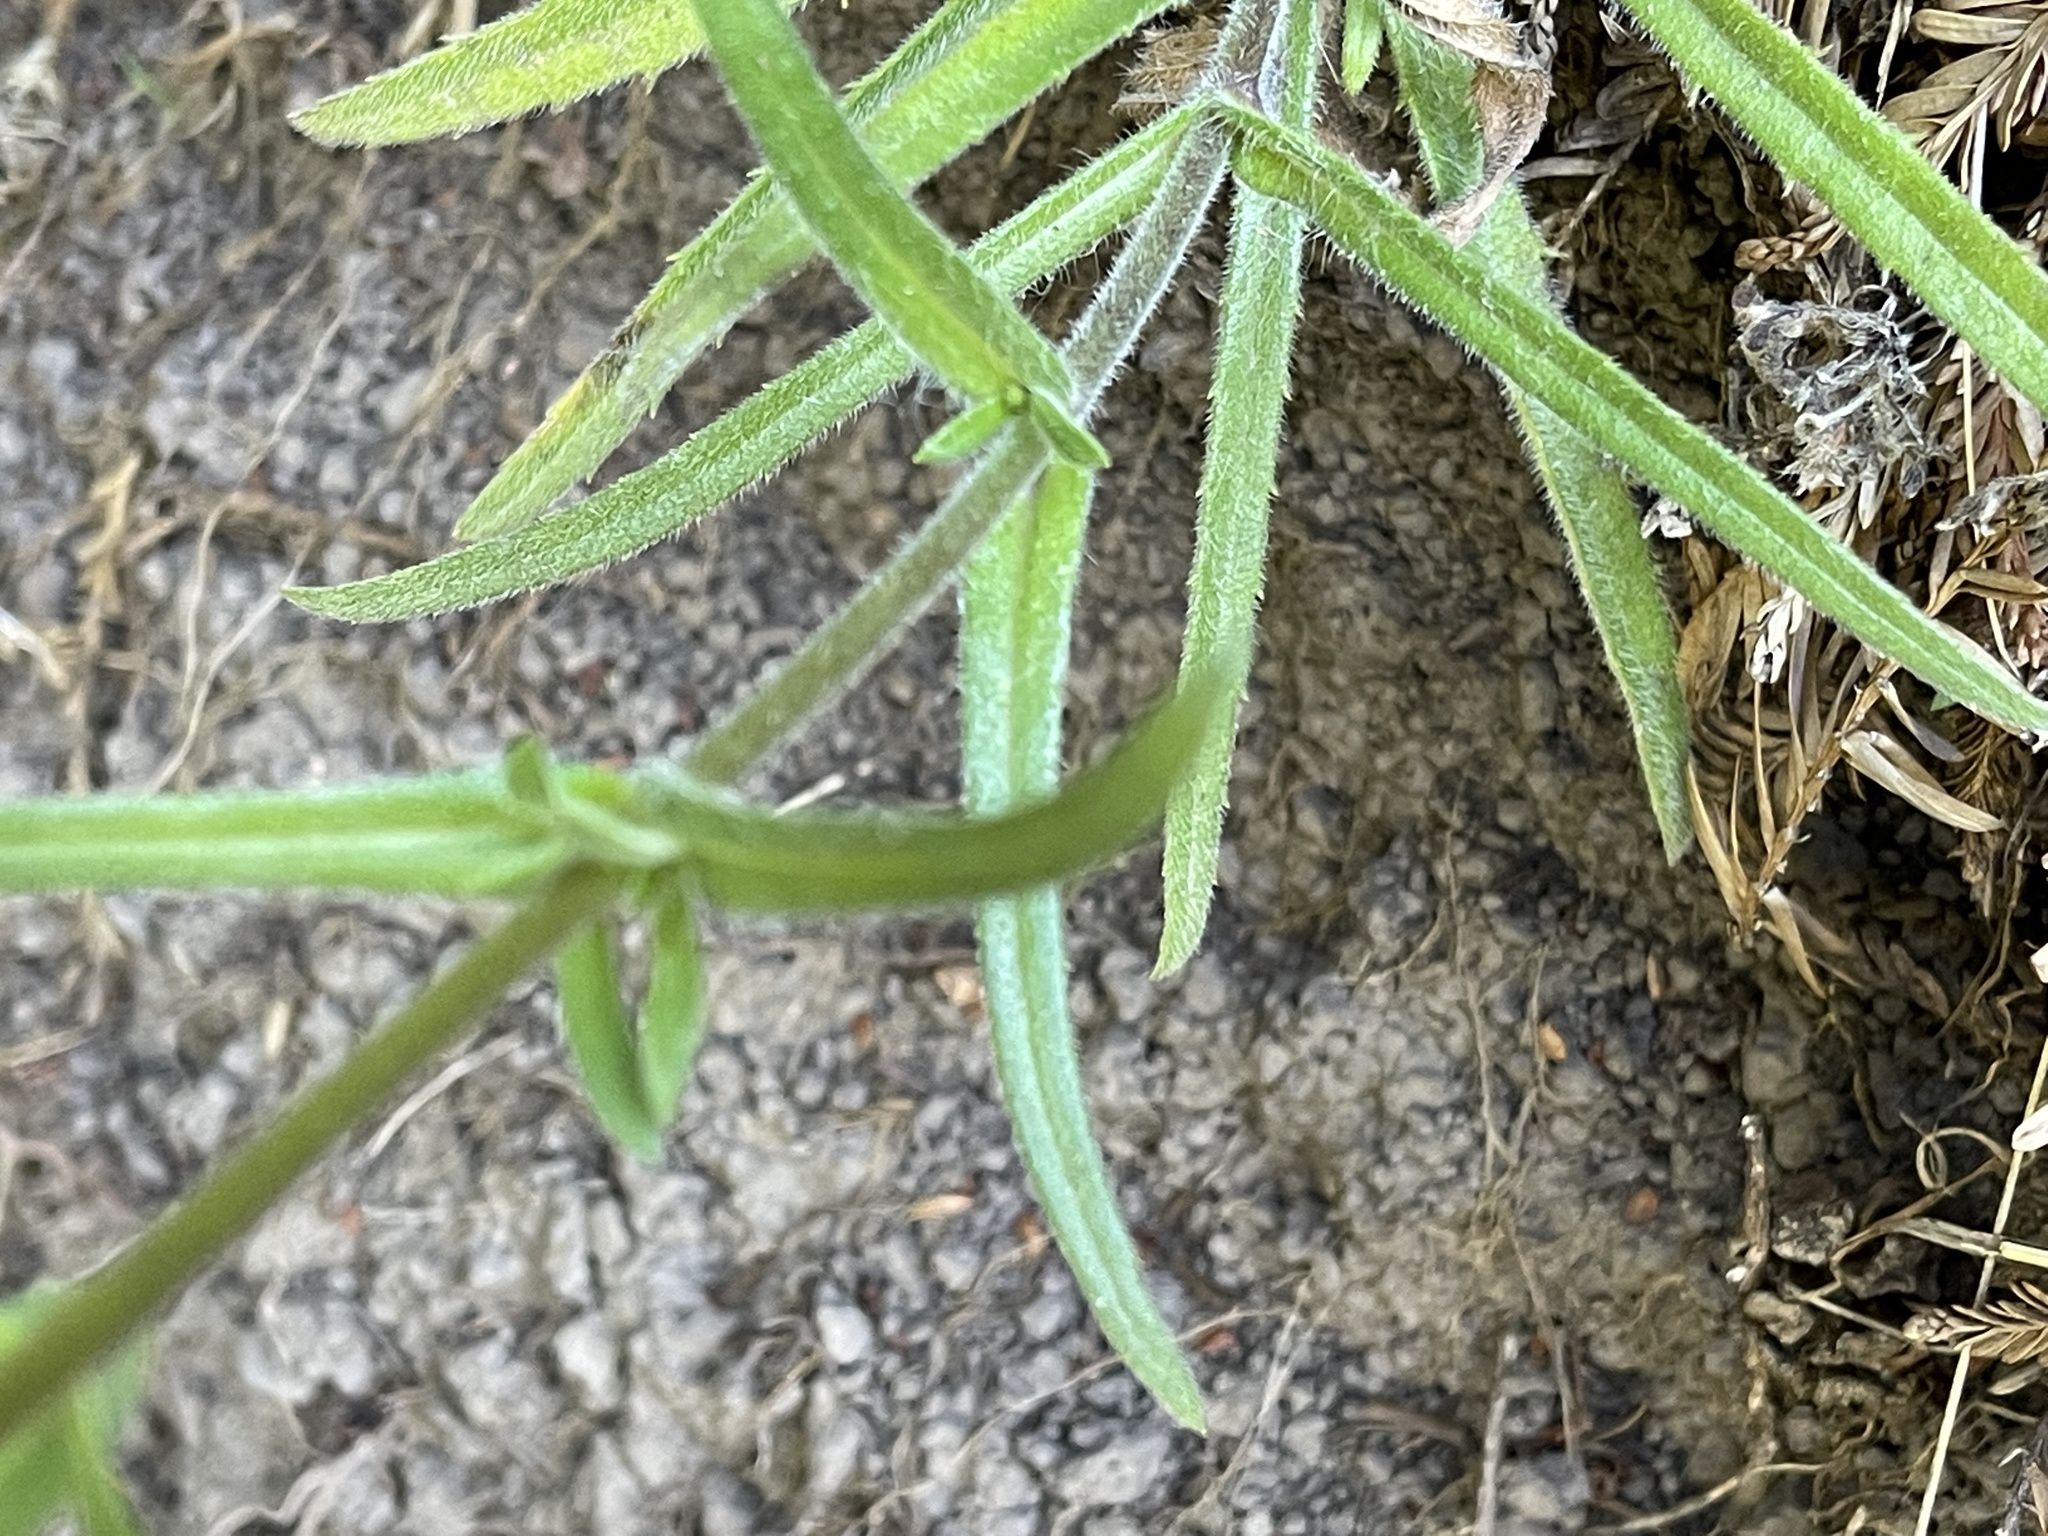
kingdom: Plantae
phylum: Tracheophyta
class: Magnoliopsida
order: Asterales
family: Asteraceae
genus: Anisocarpus
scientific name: Anisocarpus madioides
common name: Woodland madia
